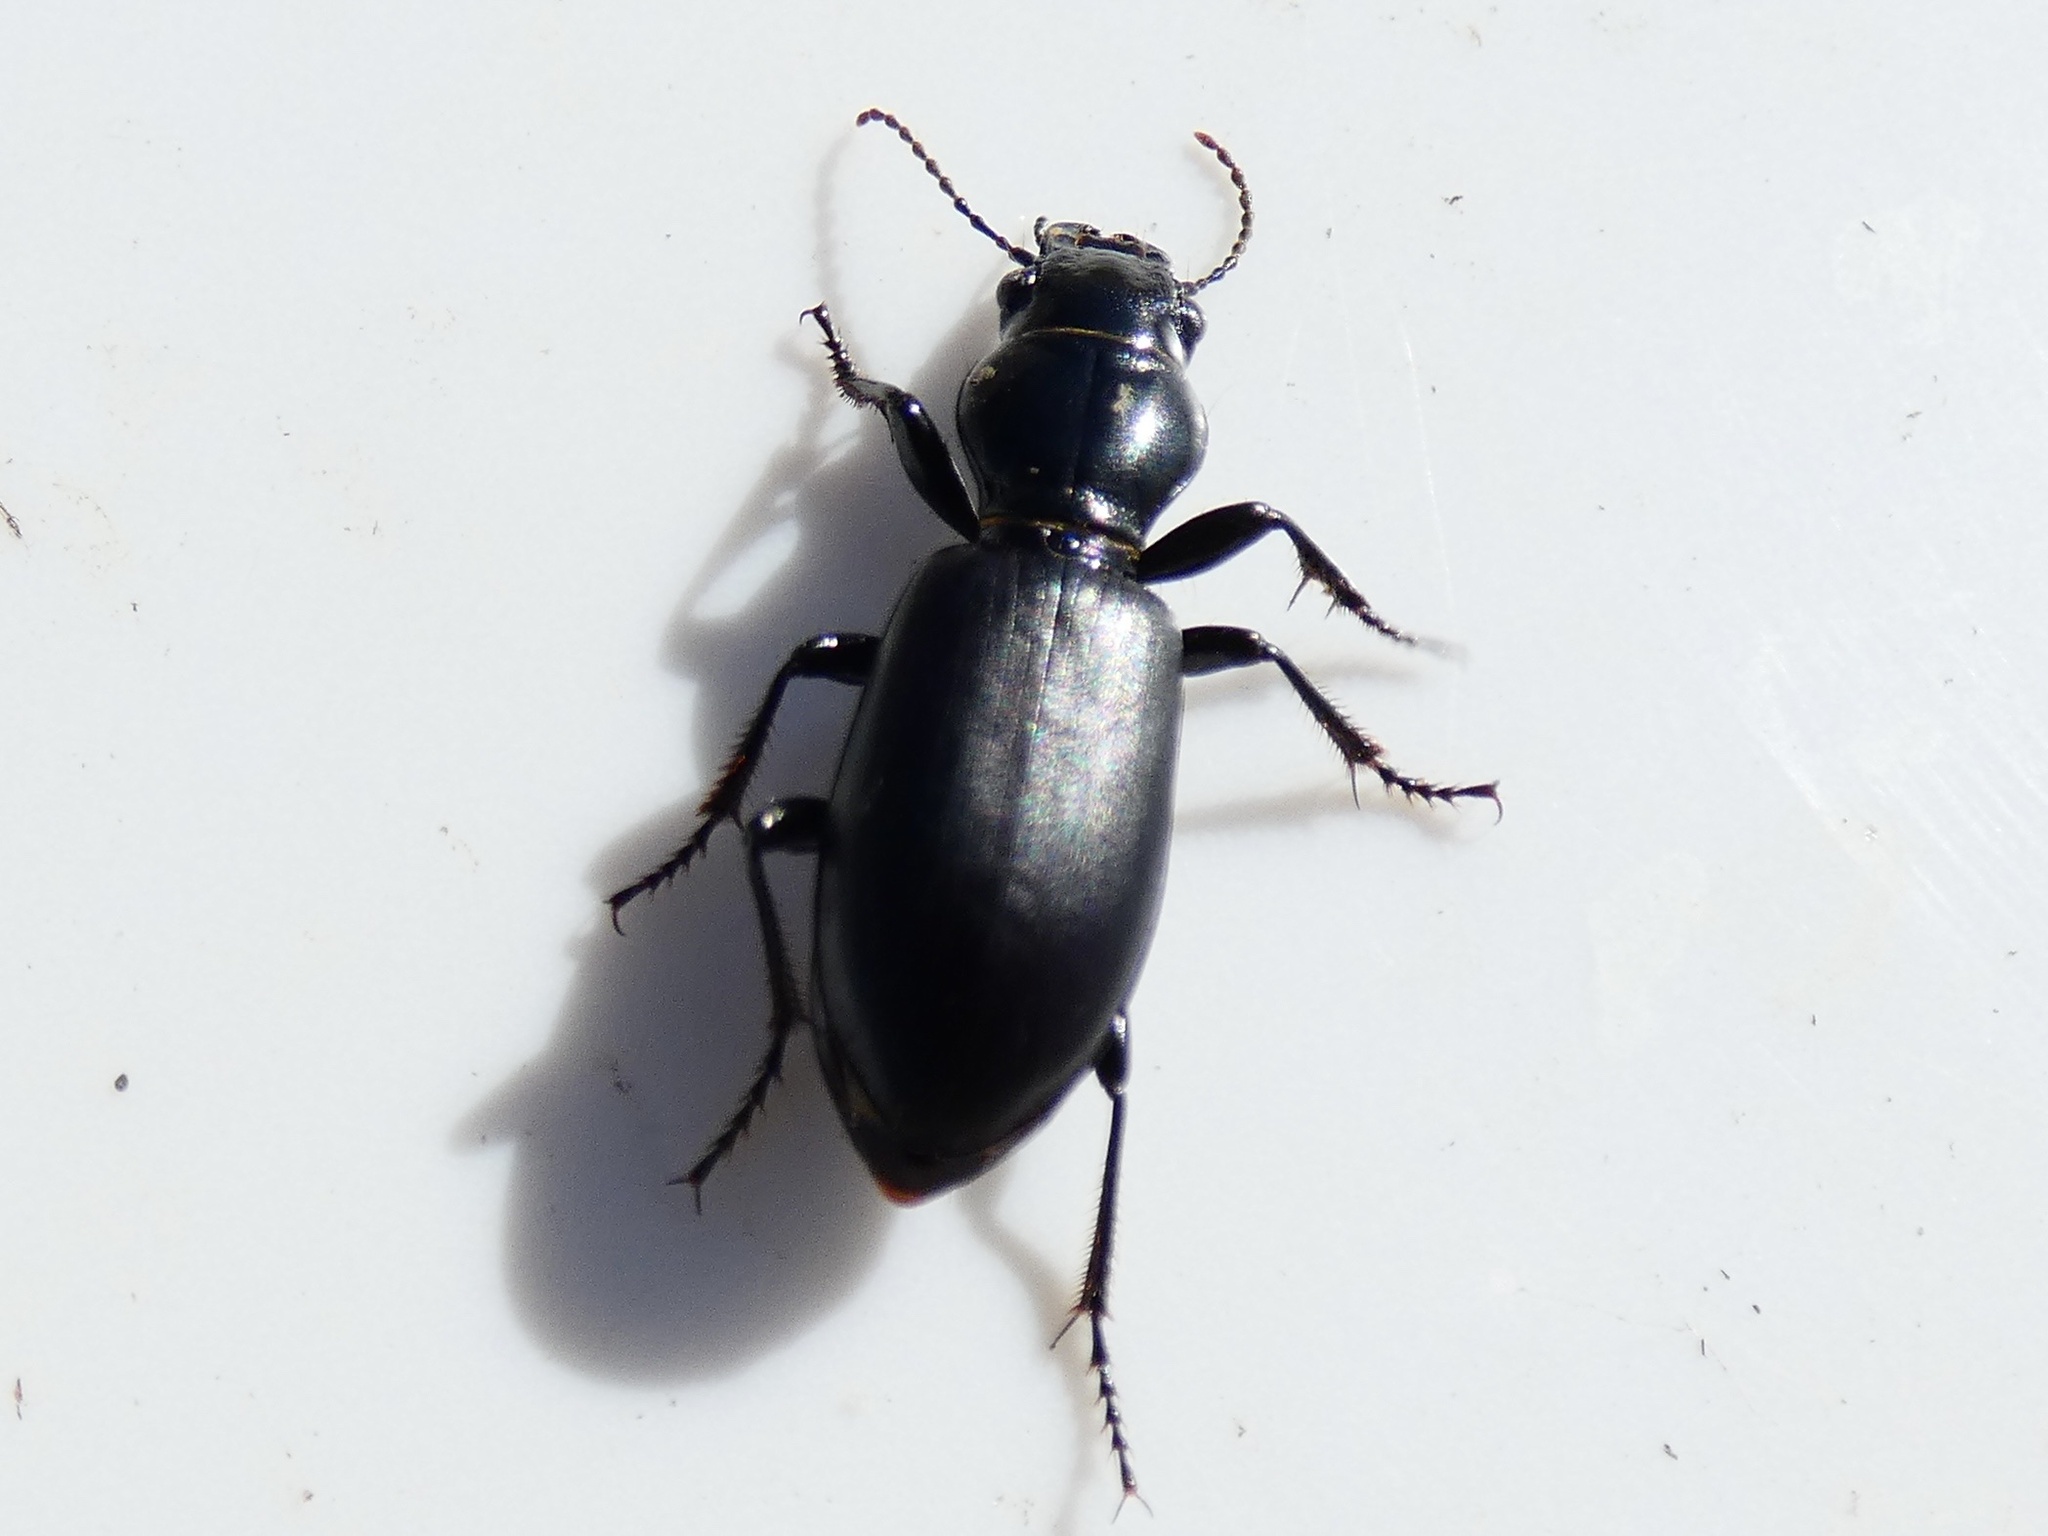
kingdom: Animalia
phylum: Arthropoda
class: Insecta
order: Coleoptera
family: Carabidae
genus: Broscus
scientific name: Broscus cephalotes
